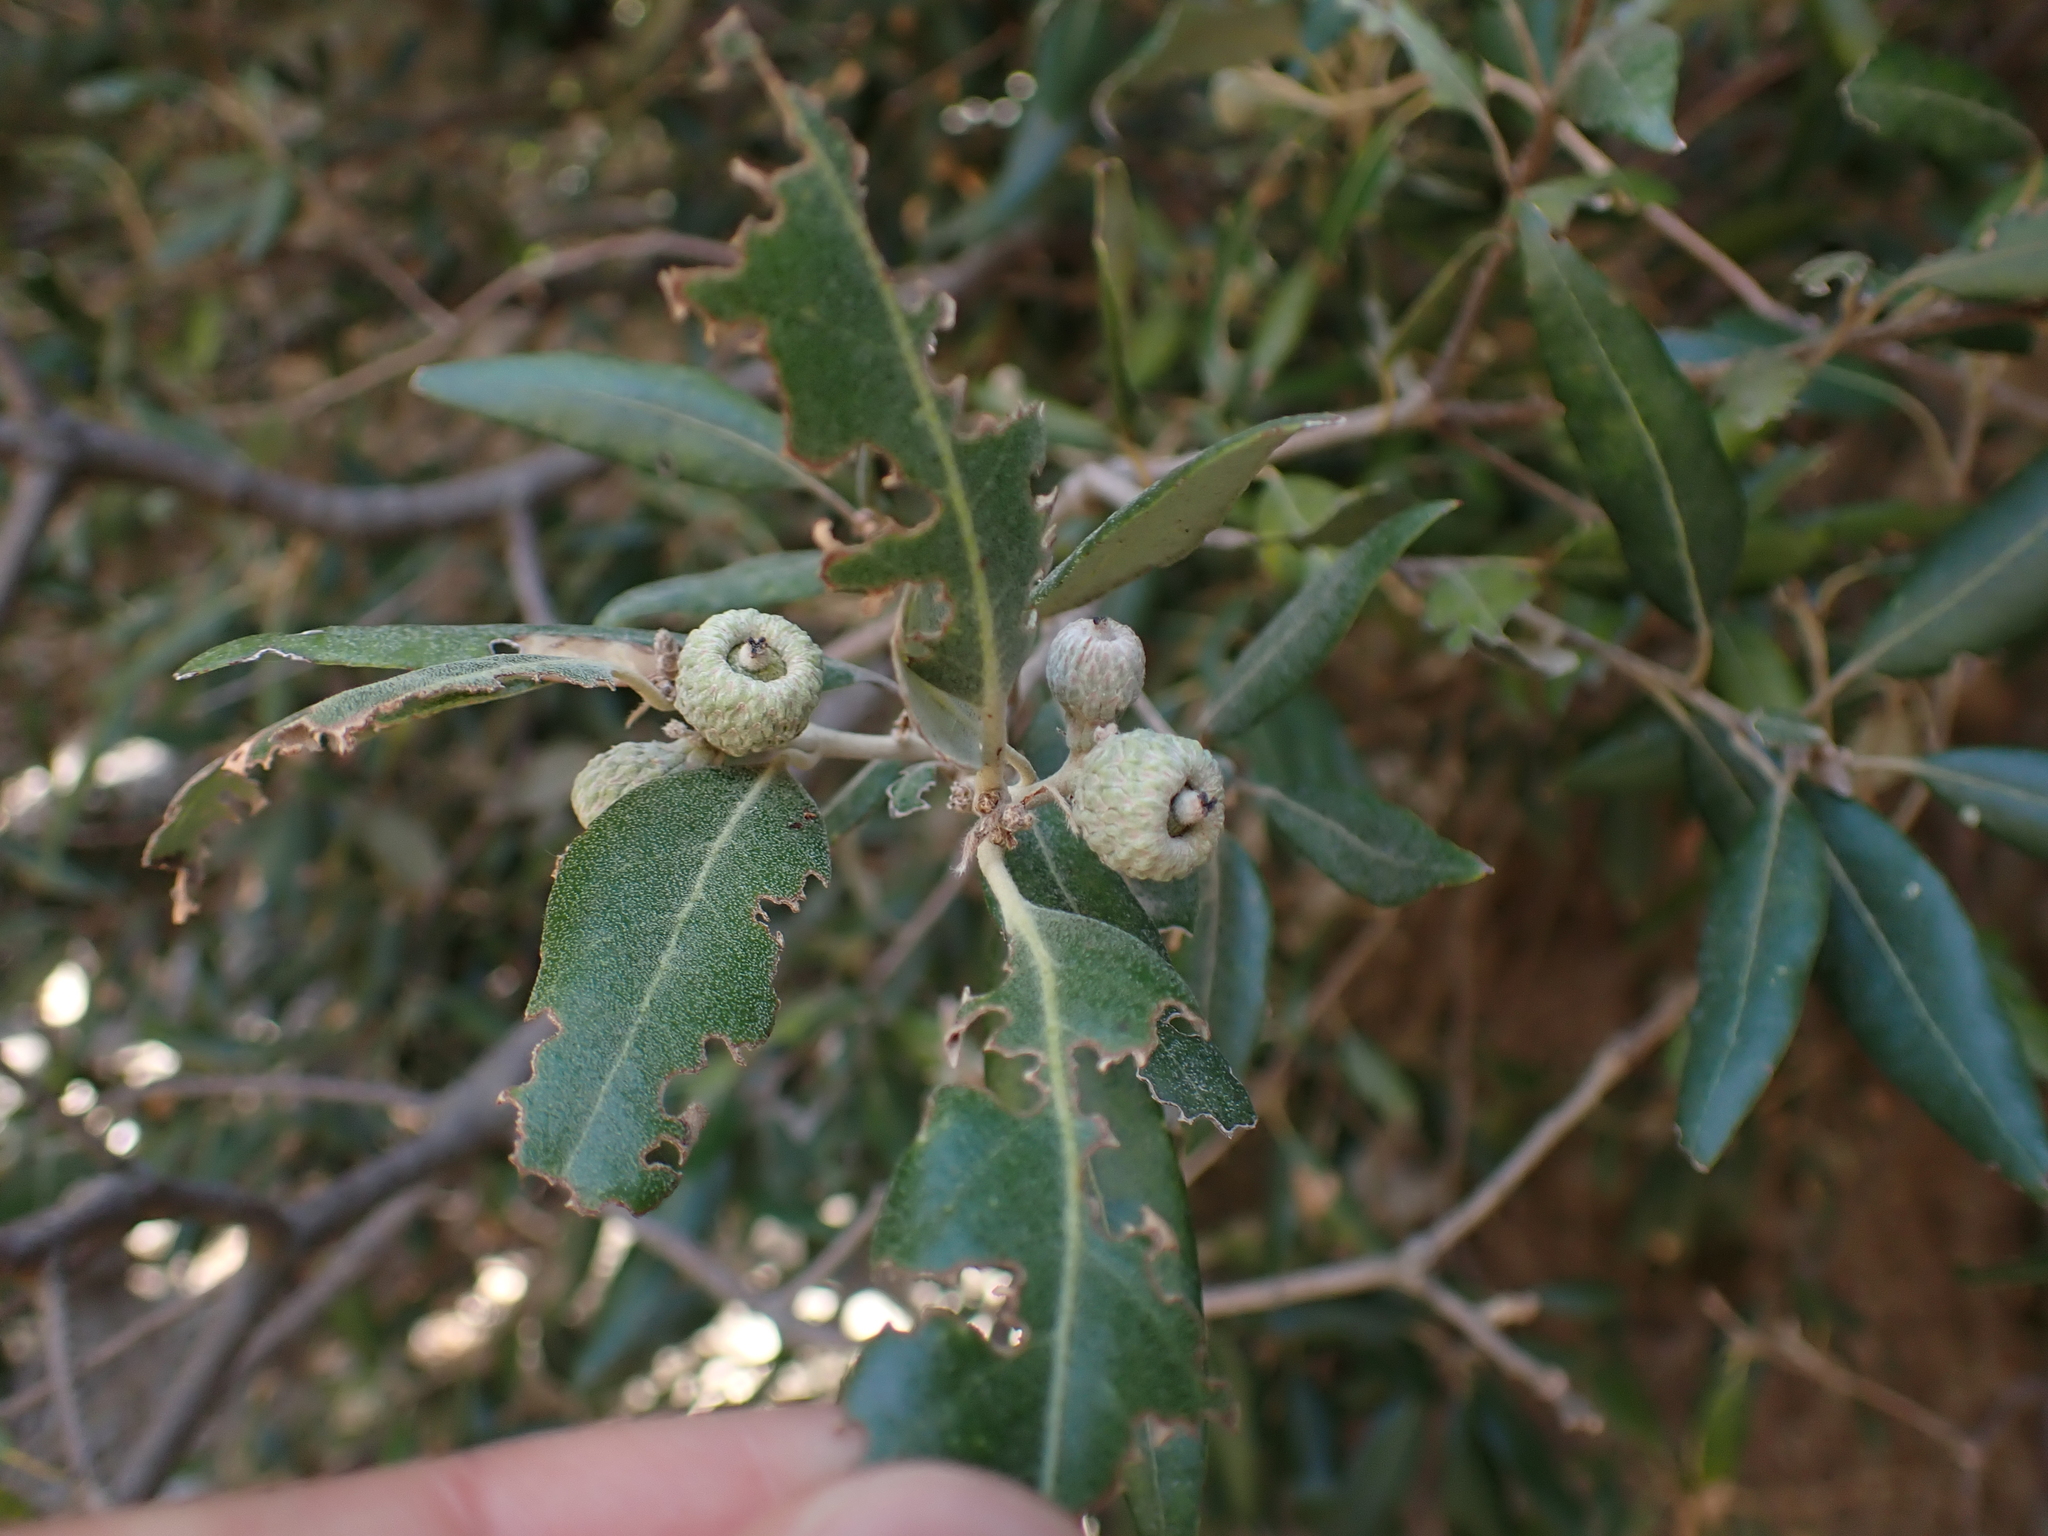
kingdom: Plantae
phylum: Tracheophyta
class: Magnoliopsida
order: Fagales
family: Fagaceae
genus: Quercus
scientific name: Quercus ilex
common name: Evergreen oak
